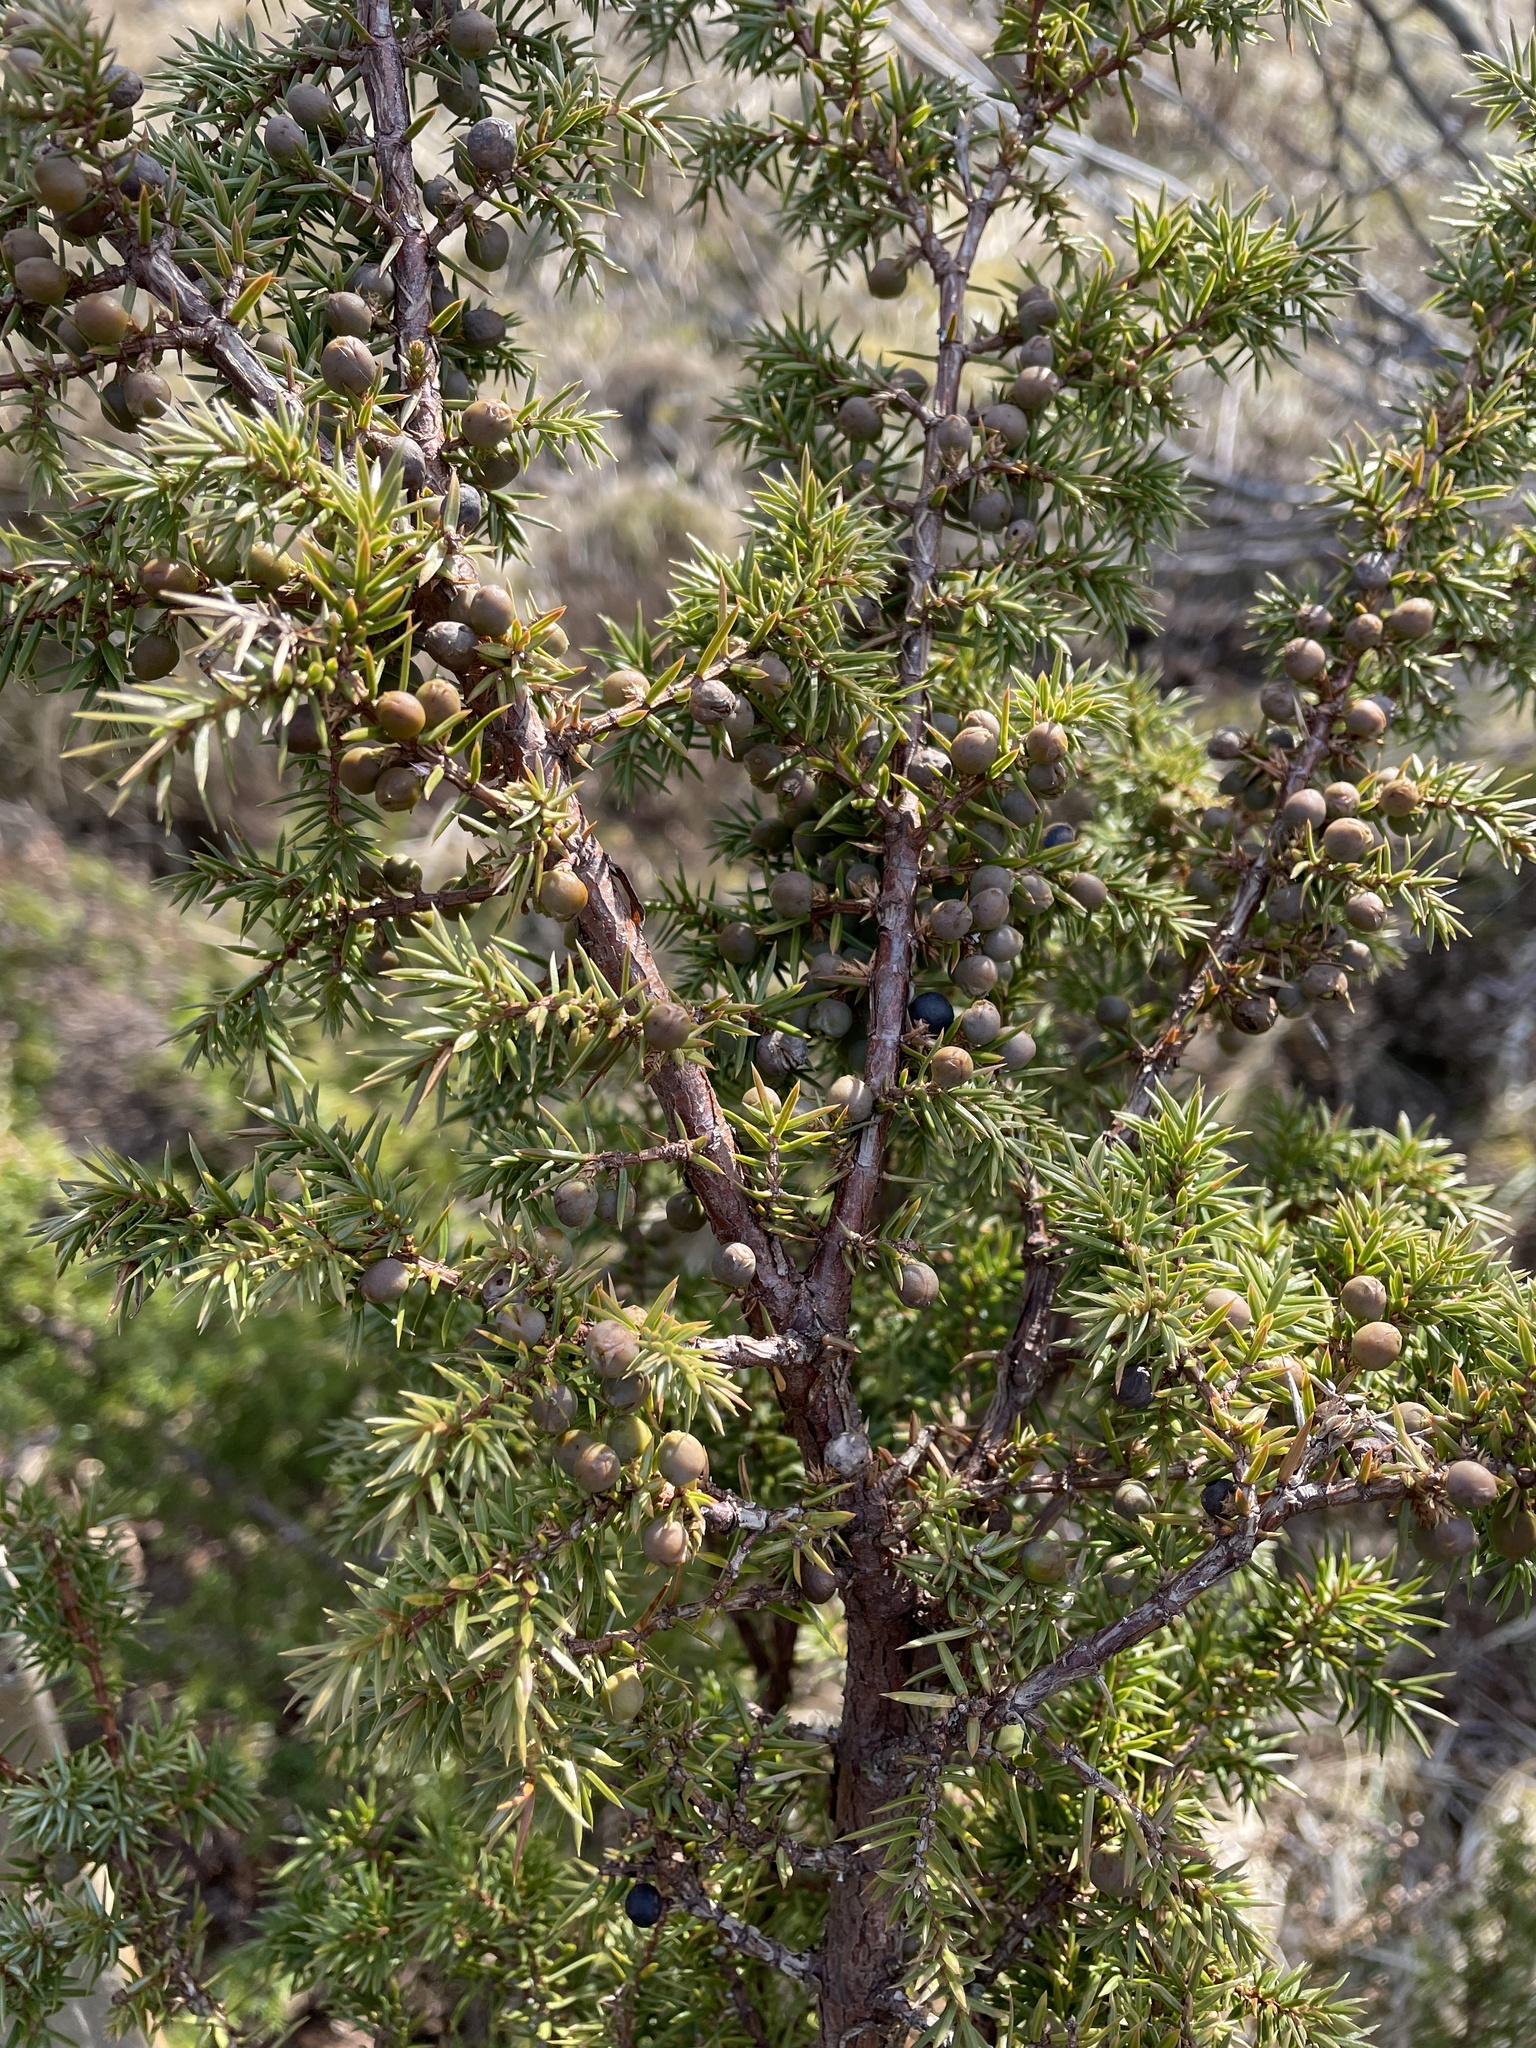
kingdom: Plantae
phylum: Tracheophyta
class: Pinopsida
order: Pinales
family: Cupressaceae
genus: Juniperus
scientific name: Juniperus communis
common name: Common juniper
